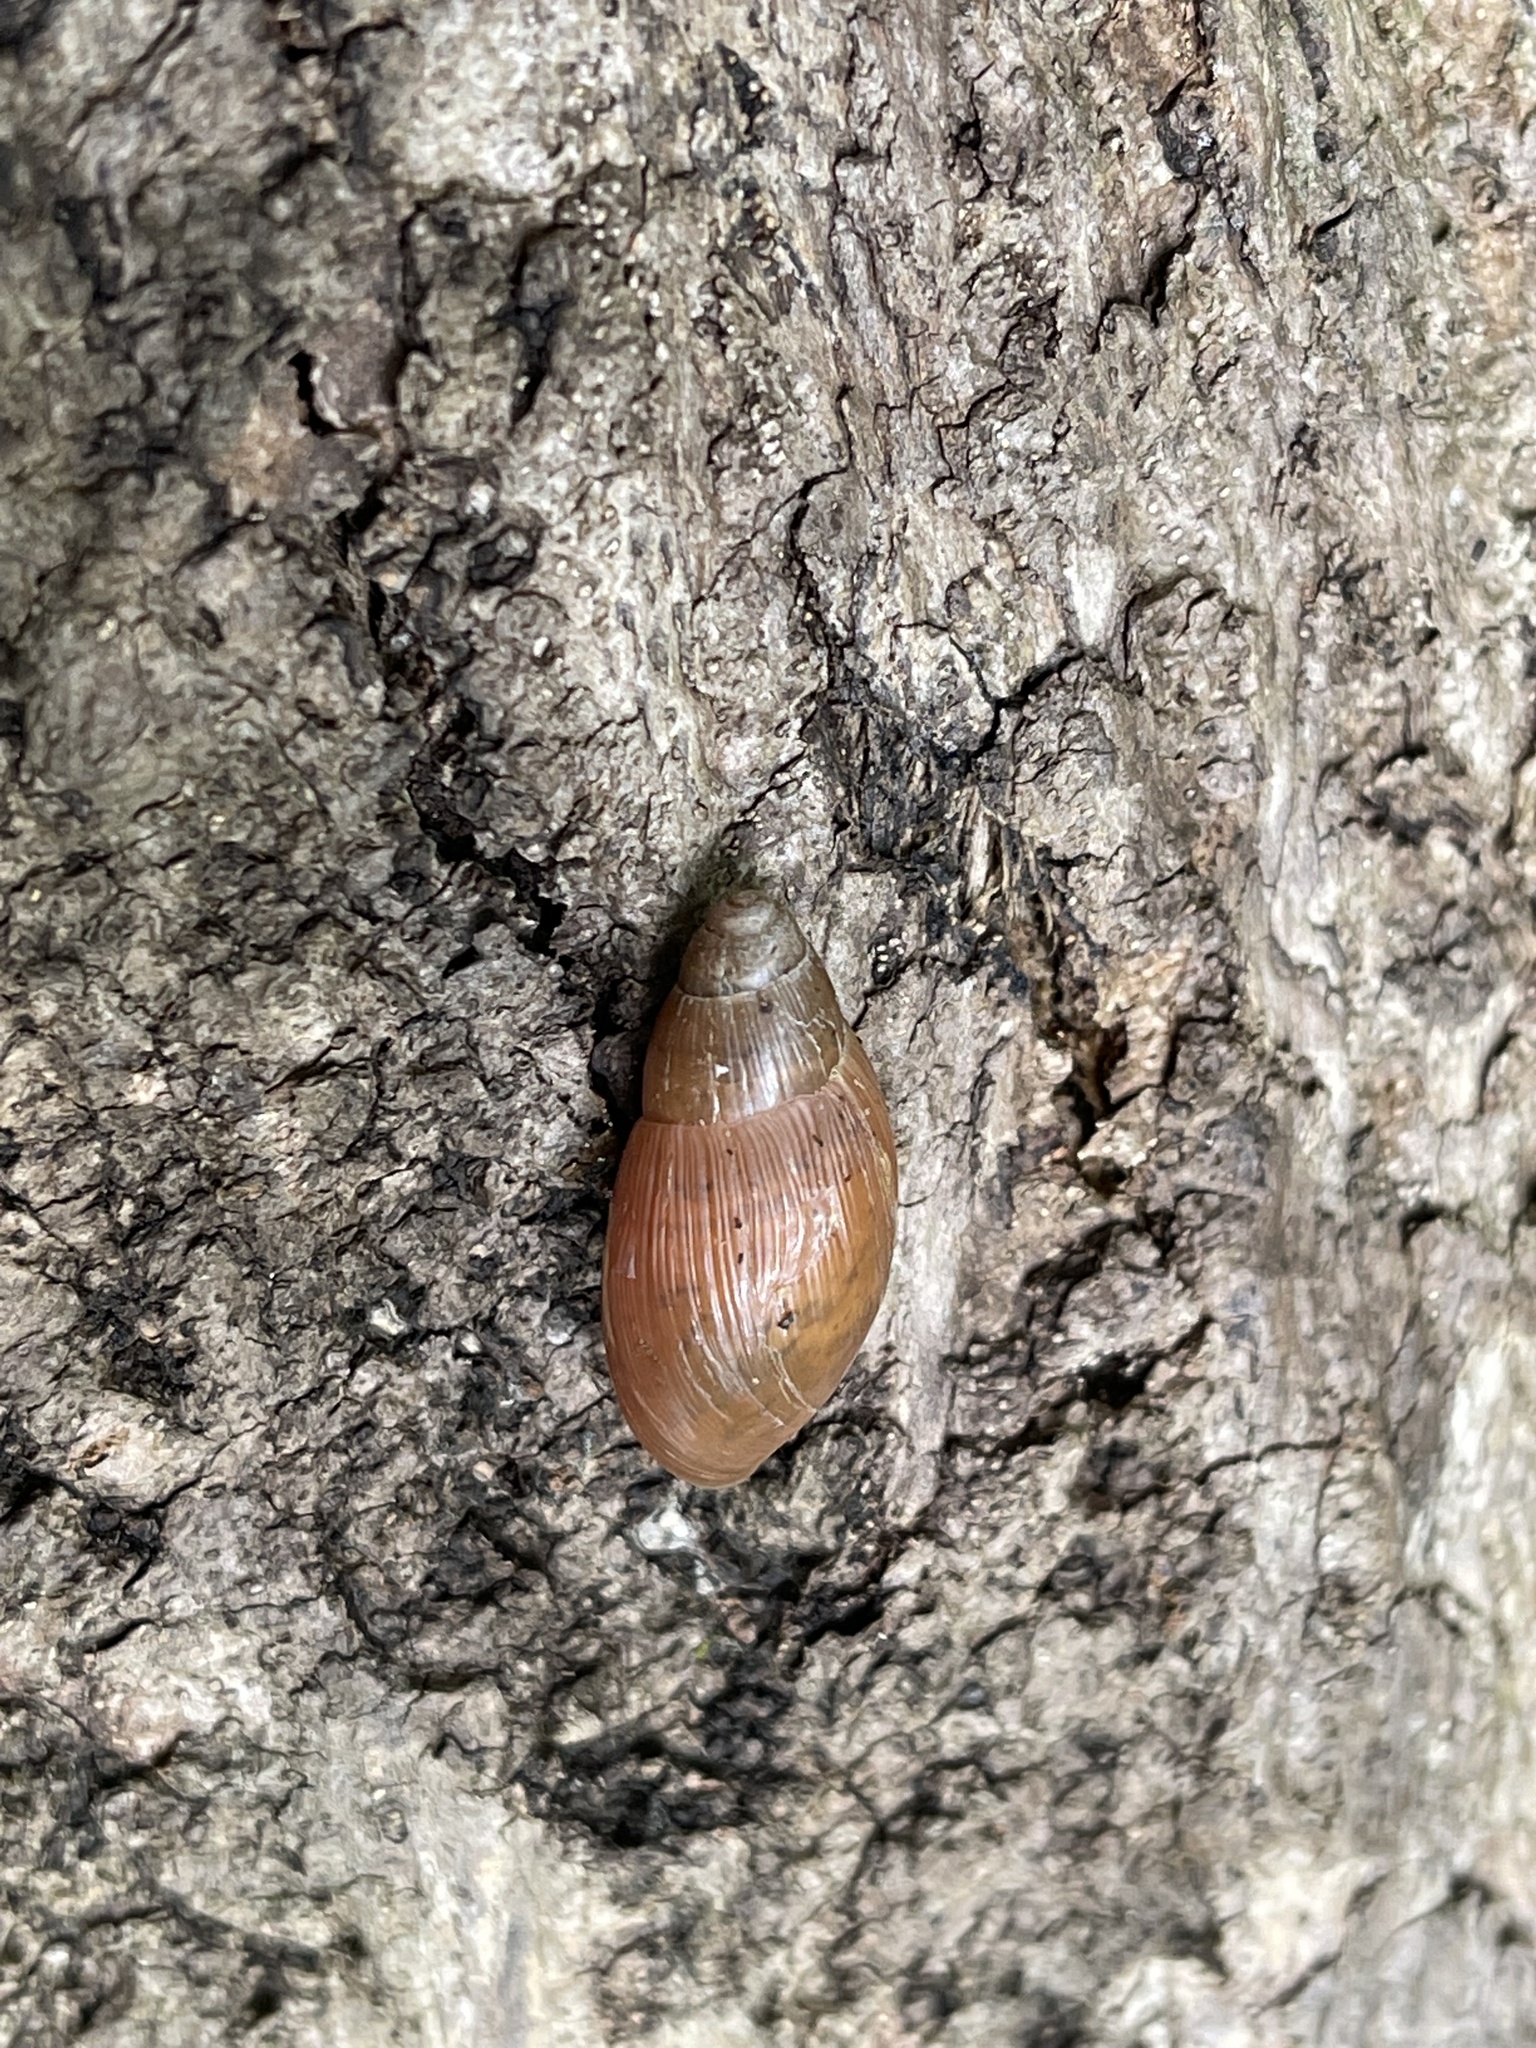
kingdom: Animalia
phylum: Mollusca
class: Gastropoda
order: Stylommatophora
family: Spiraxidae
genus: Euglandina
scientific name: Euglandina rosea
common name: Rosy wolfsnail
